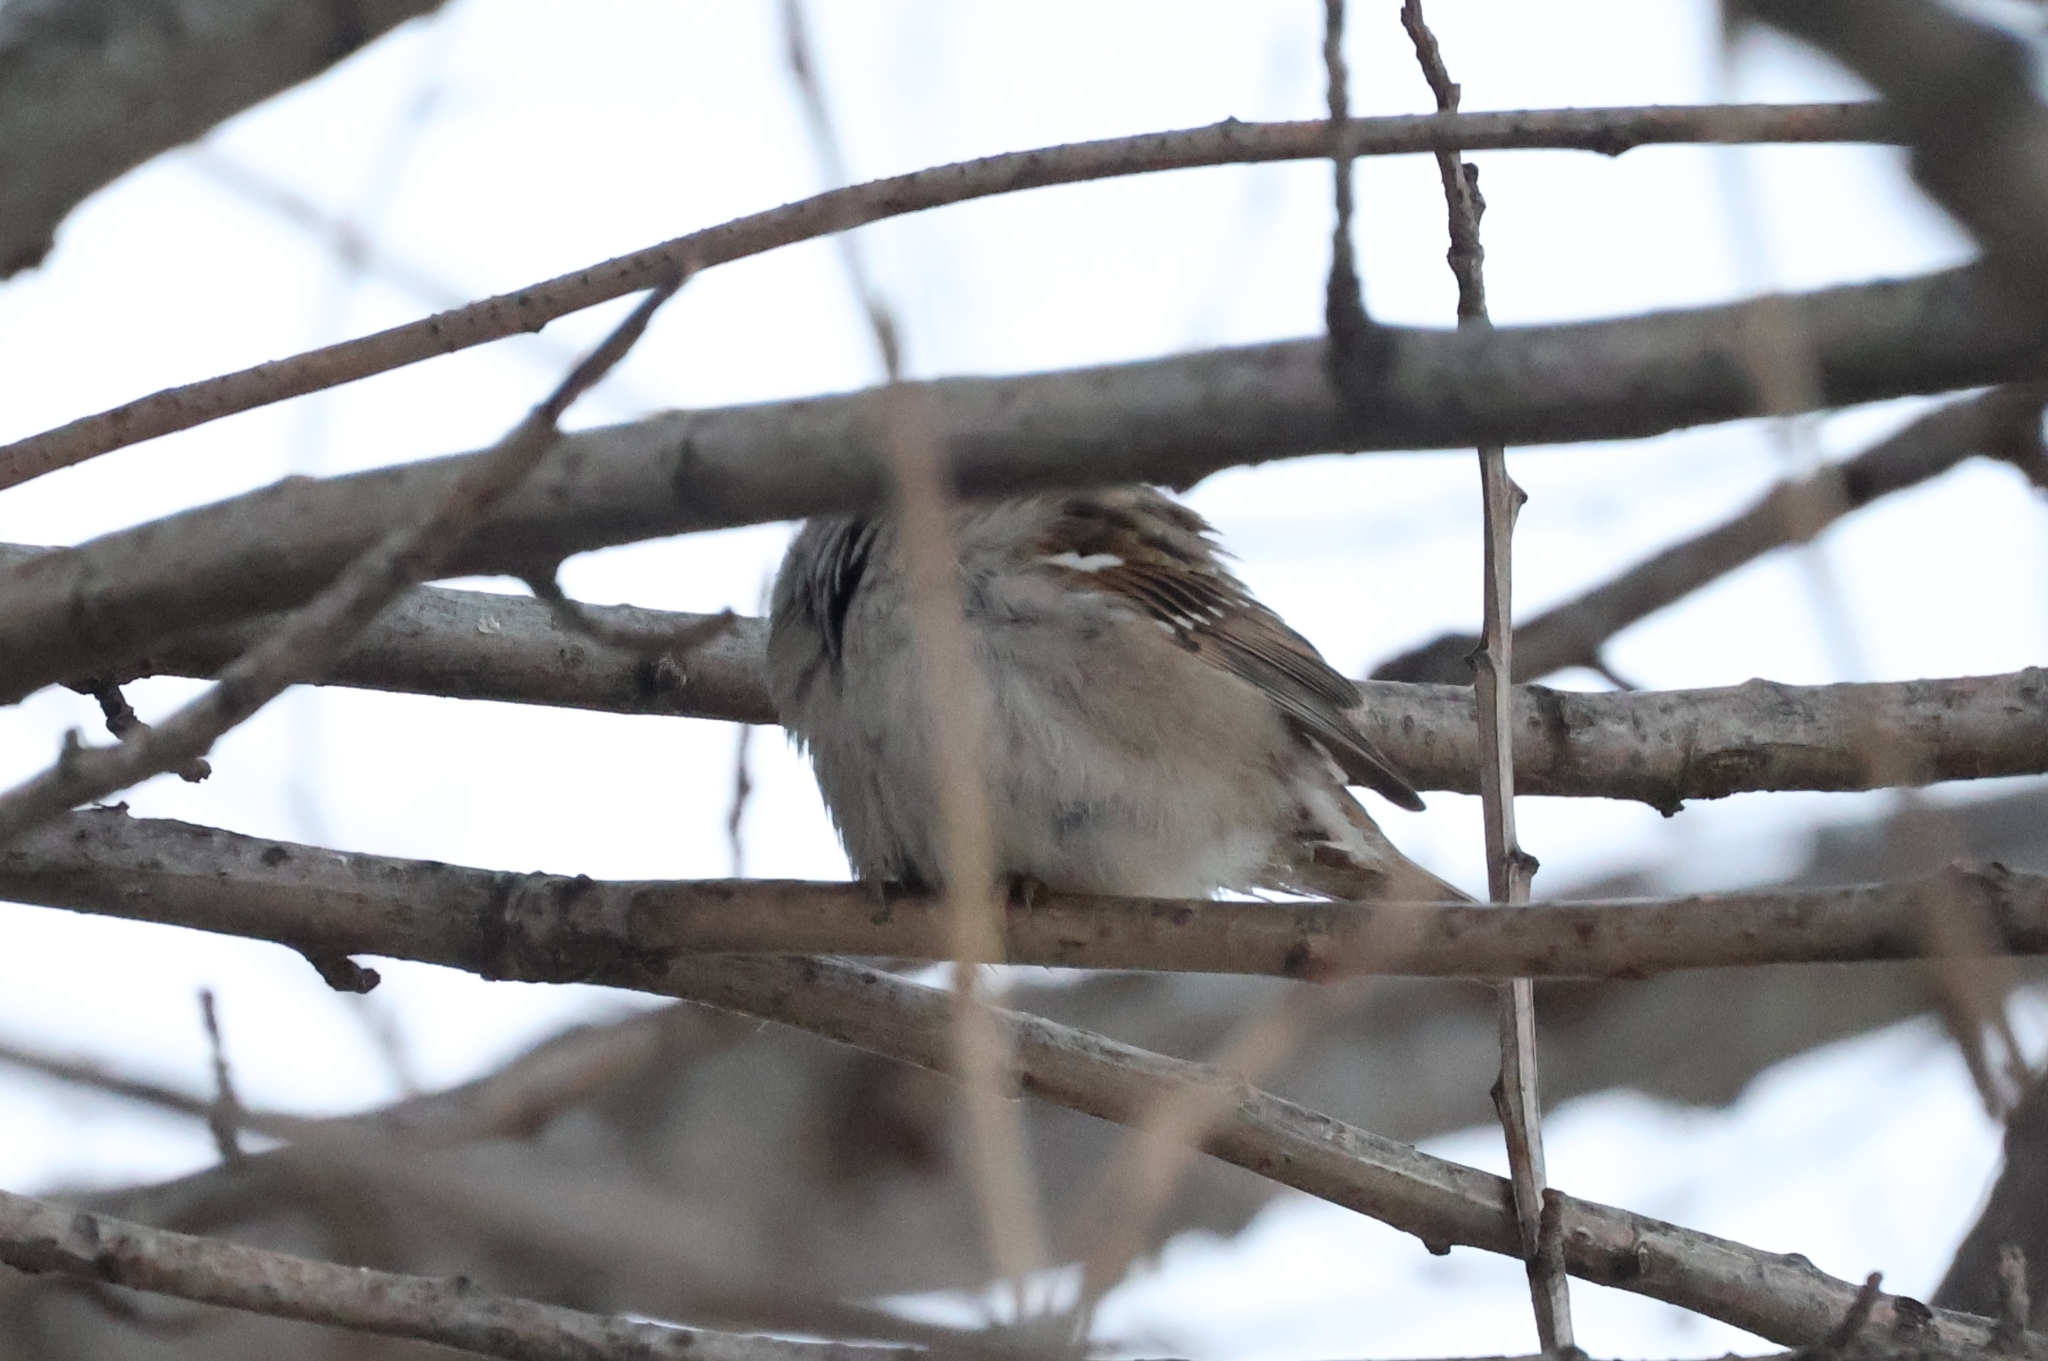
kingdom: Animalia
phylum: Chordata
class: Aves
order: Passeriformes
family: Passeridae
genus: Passer
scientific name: Passer montanus
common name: Eurasian tree sparrow
